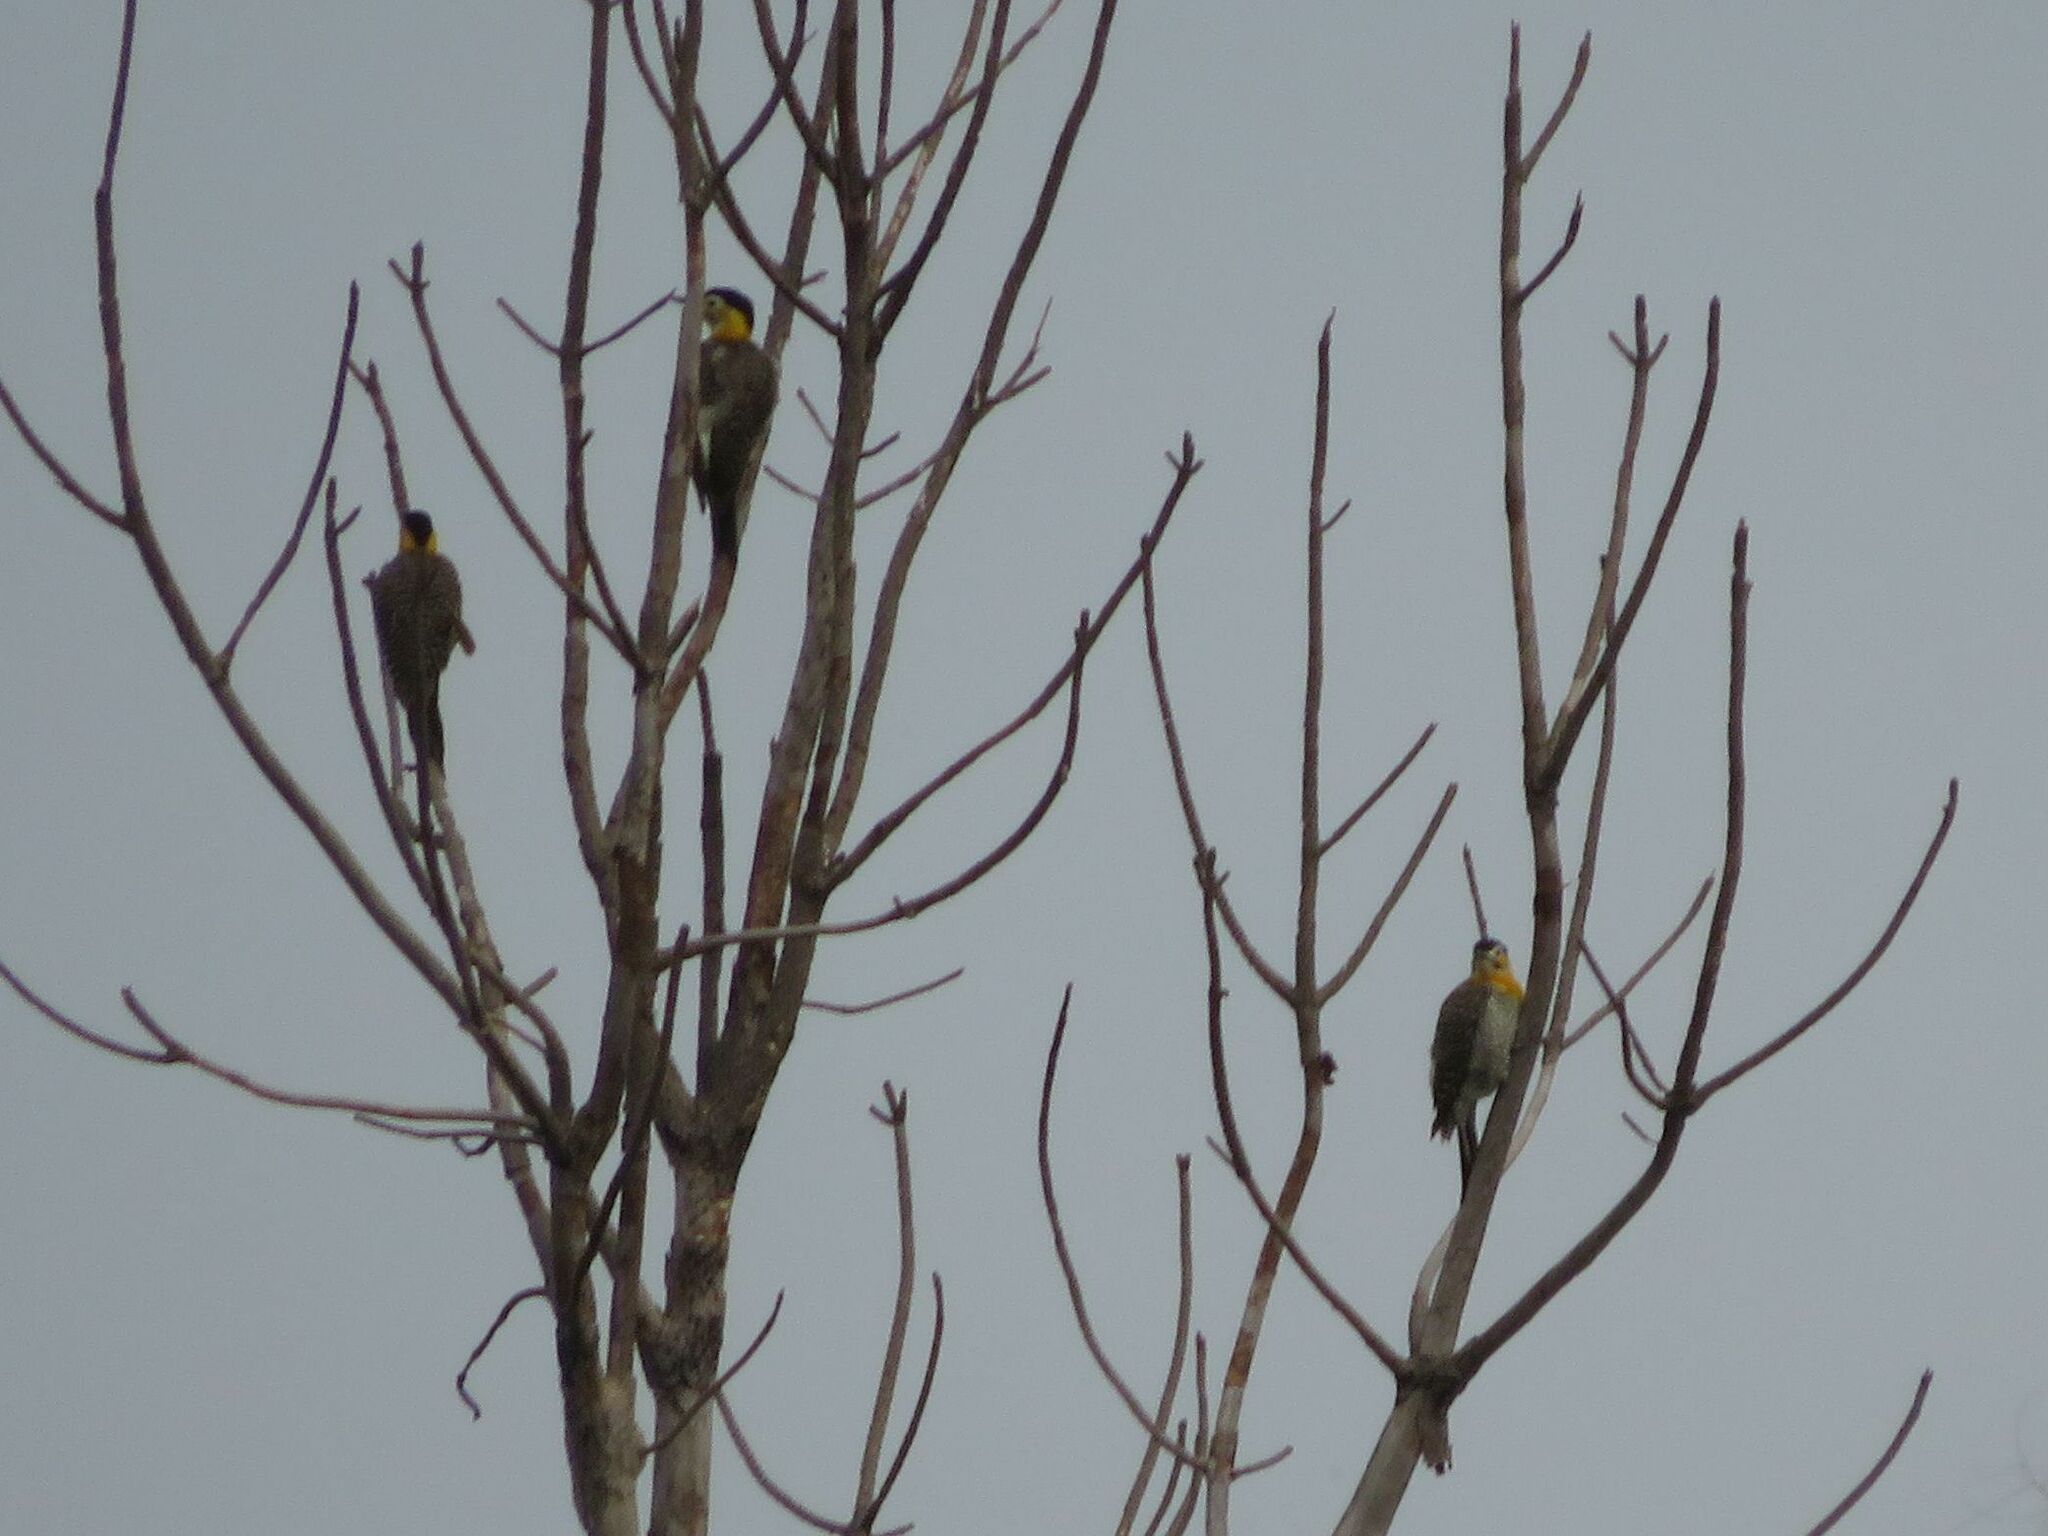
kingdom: Animalia
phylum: Chordata
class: Aves
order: Piciformes
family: Picidae
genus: Colaptes
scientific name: Colaptes campestris
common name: Campo flicker
